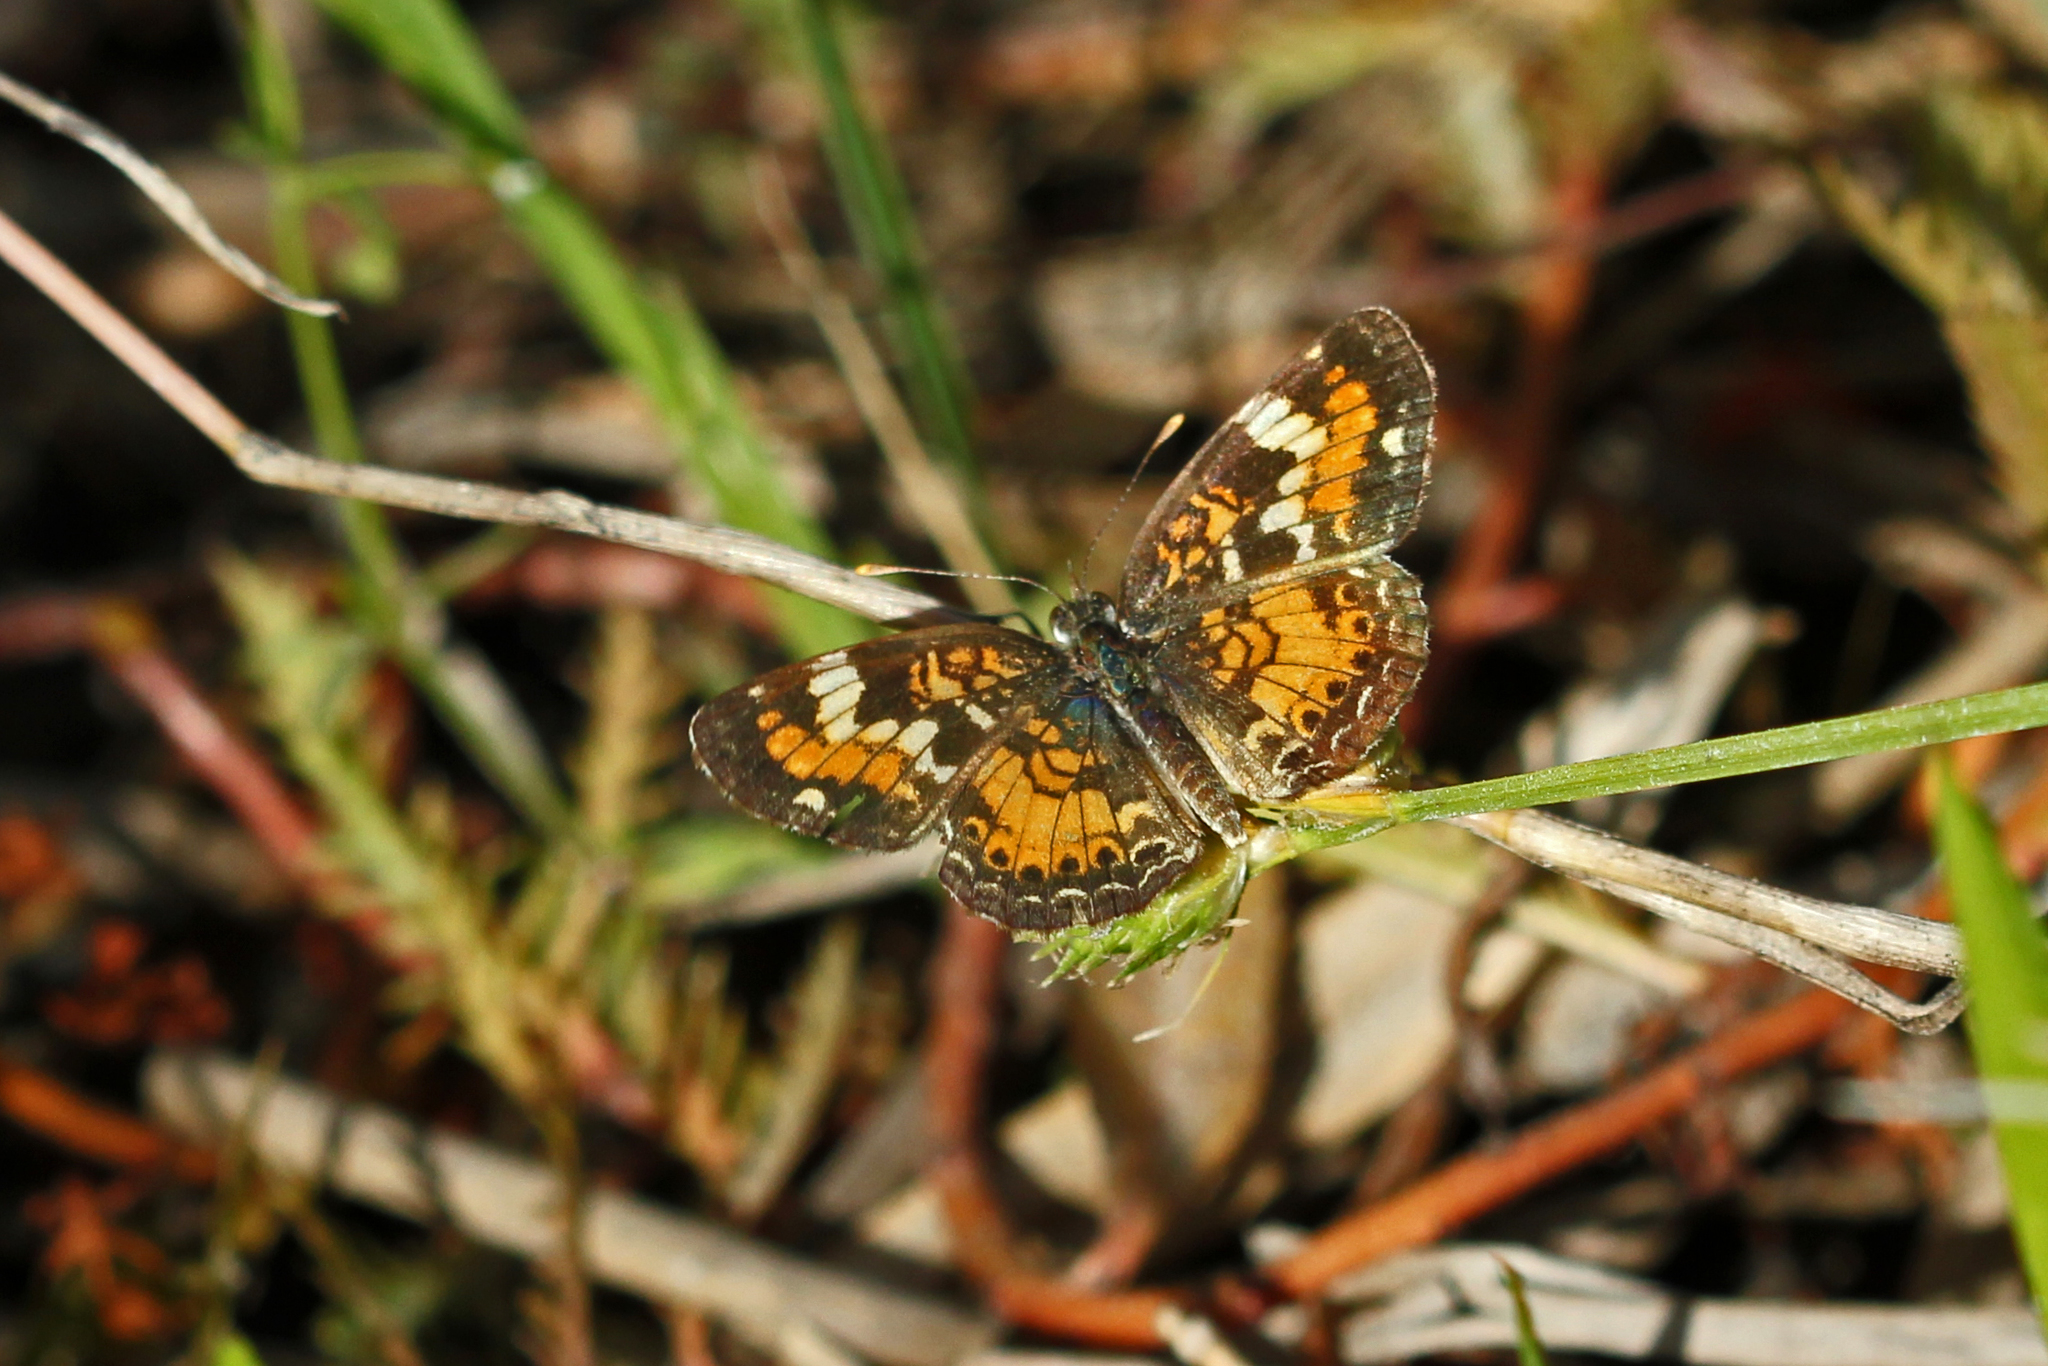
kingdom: Animalia
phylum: Arthropoda
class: Insecta
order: Lepidoptera
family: Nymphalidae
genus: Phyciodes
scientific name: Phyciodes phaon
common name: Phaon crescent
